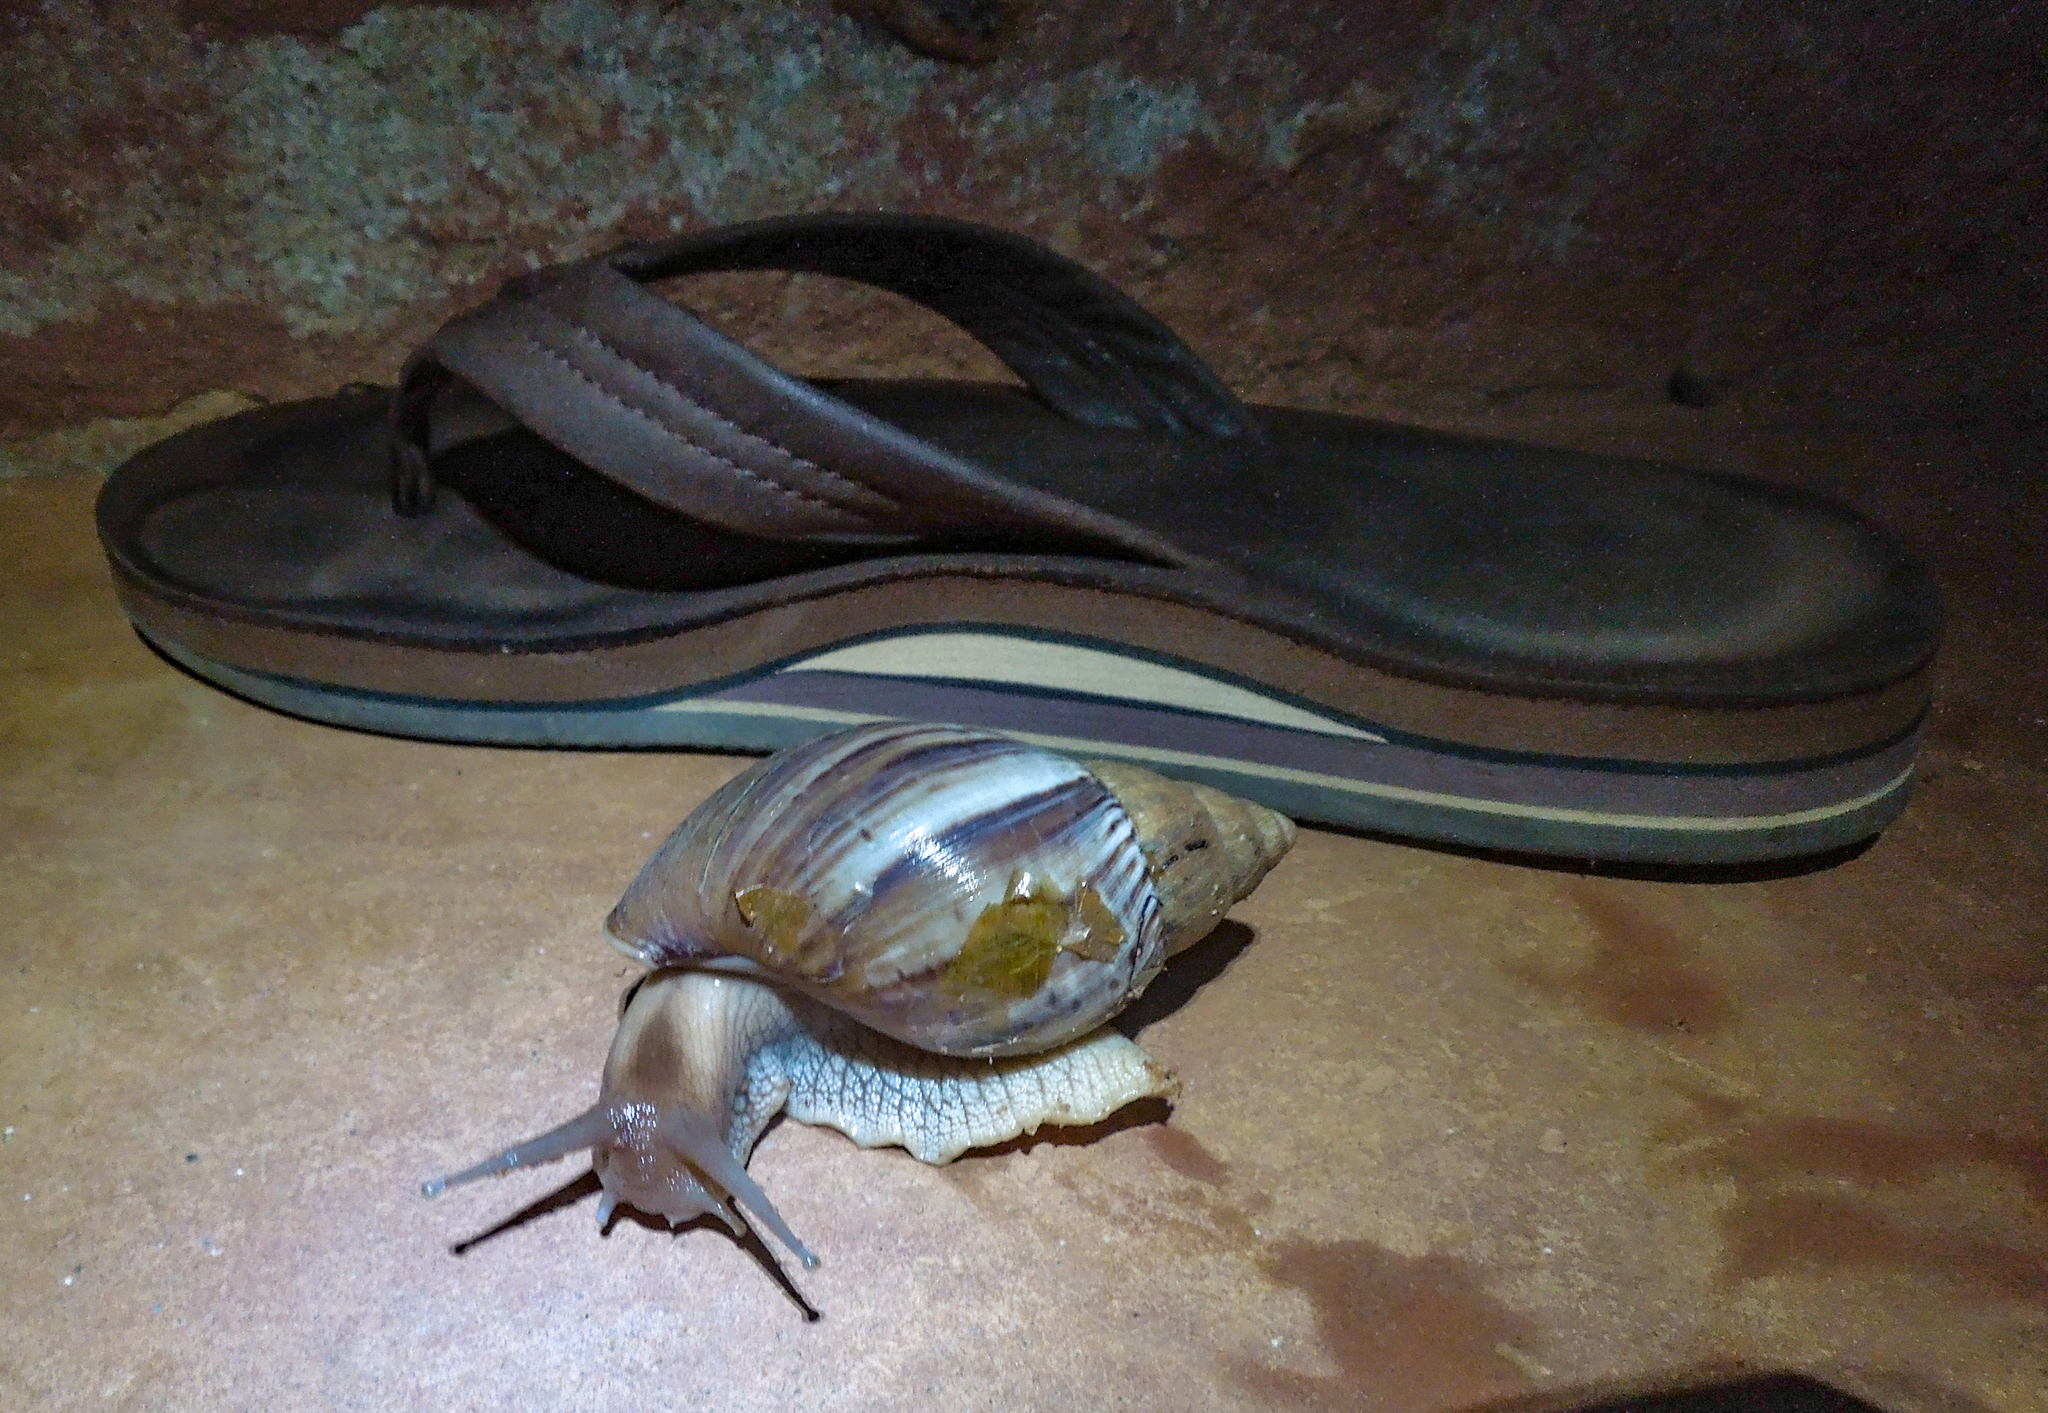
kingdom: Animalia
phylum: Mollusca
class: Gastropoda
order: Stylommatophora
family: Achatinidae
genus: Lissachatina
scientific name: Lissachatina immaculata
